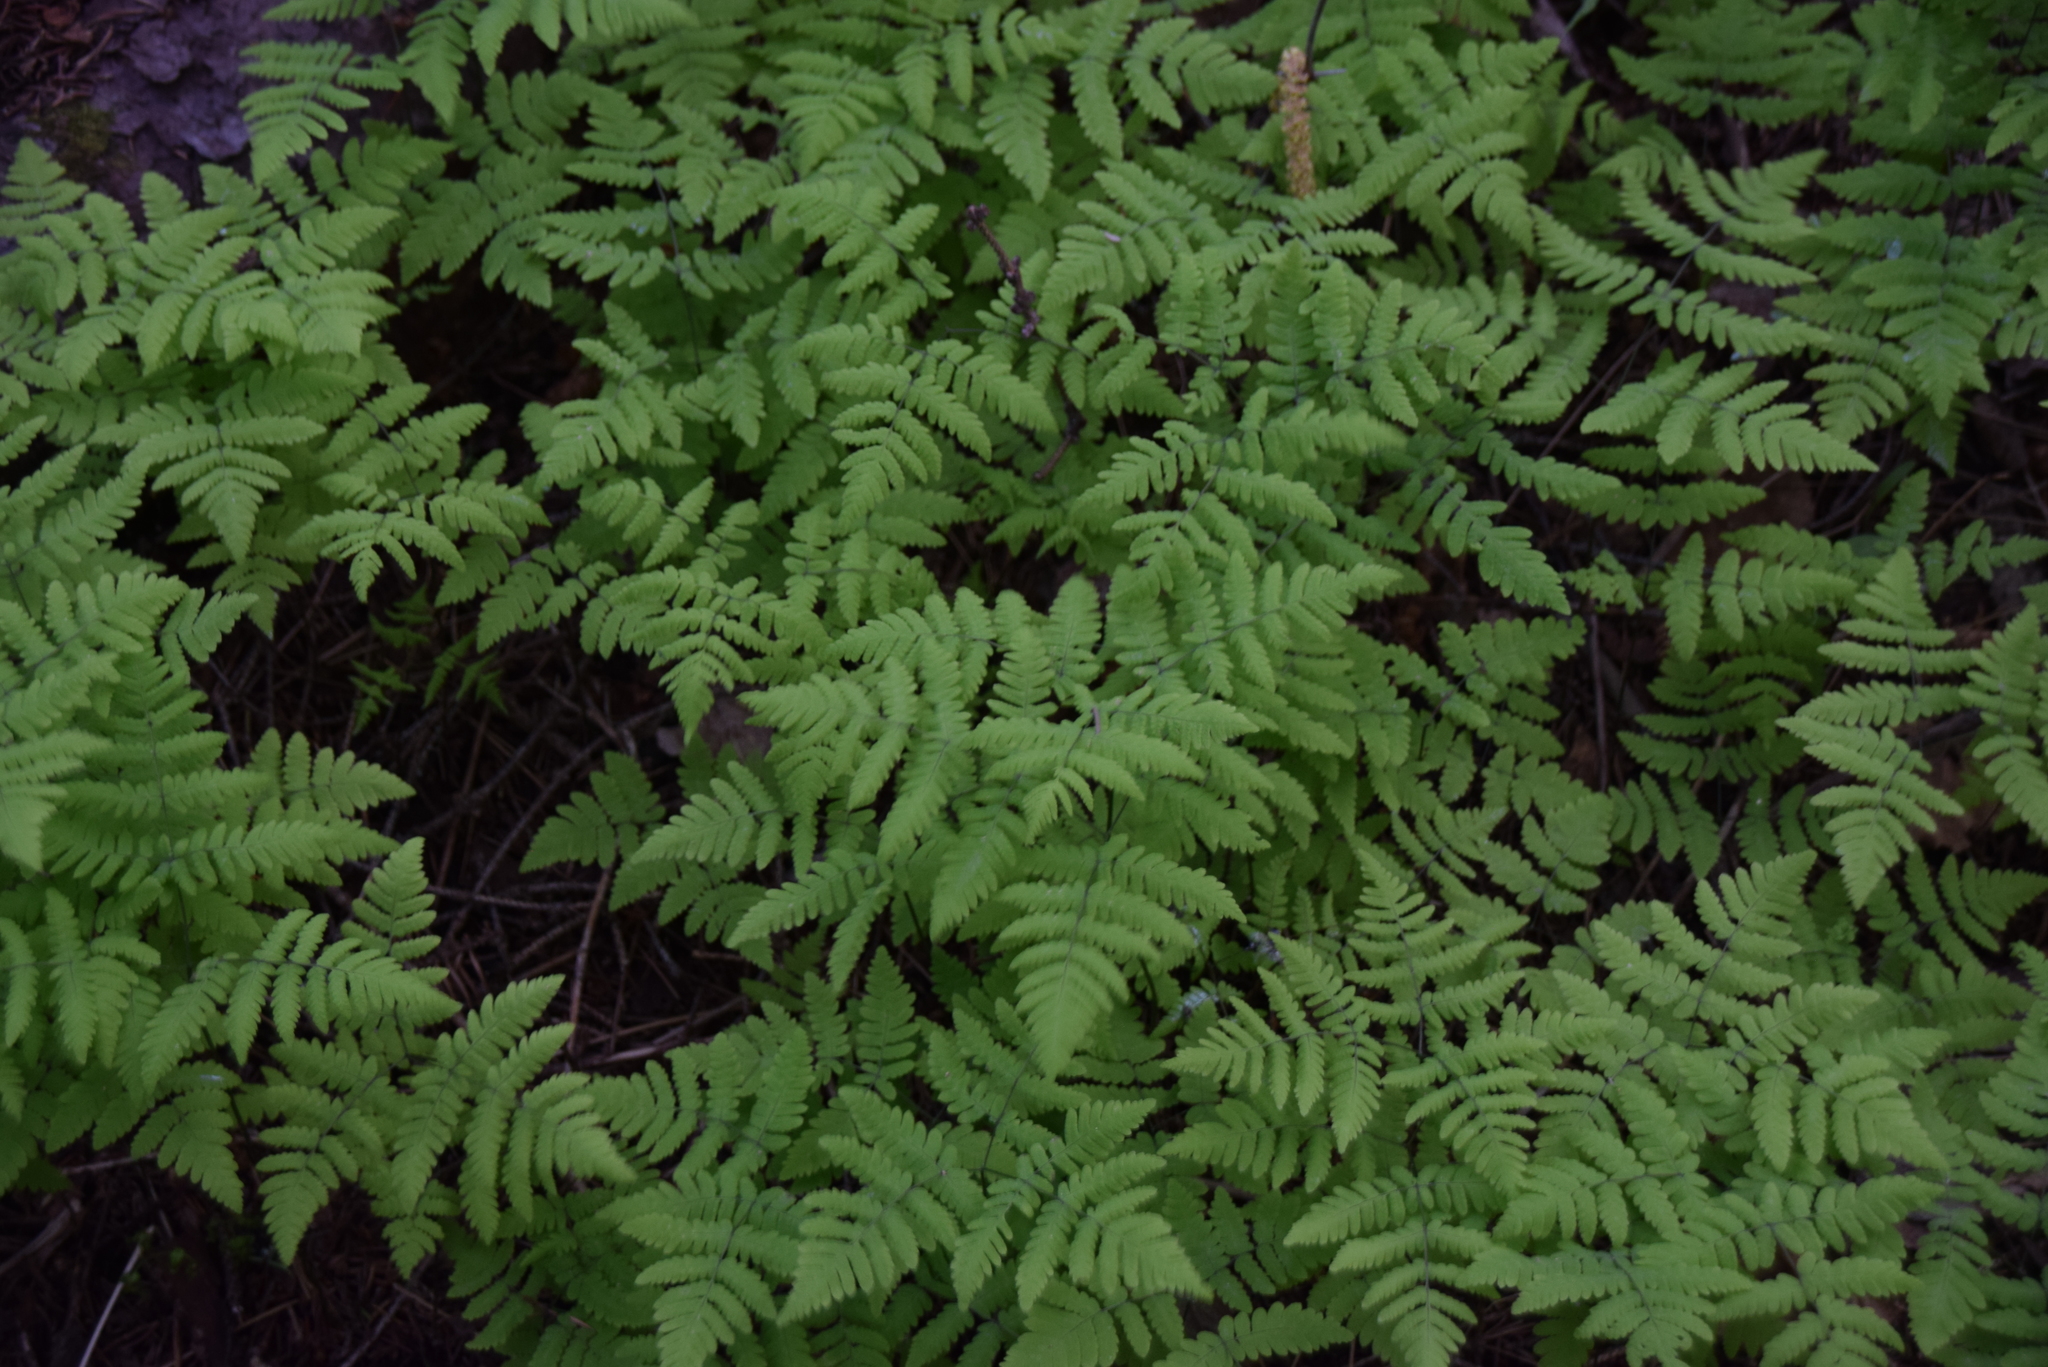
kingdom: Plantae
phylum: Tracheophyta
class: Polypodiopsida
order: Polypodiales
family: Cystopteridaceae
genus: Gymnocarpium
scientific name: Gymnocarpium dryopteris
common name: Oak fern
